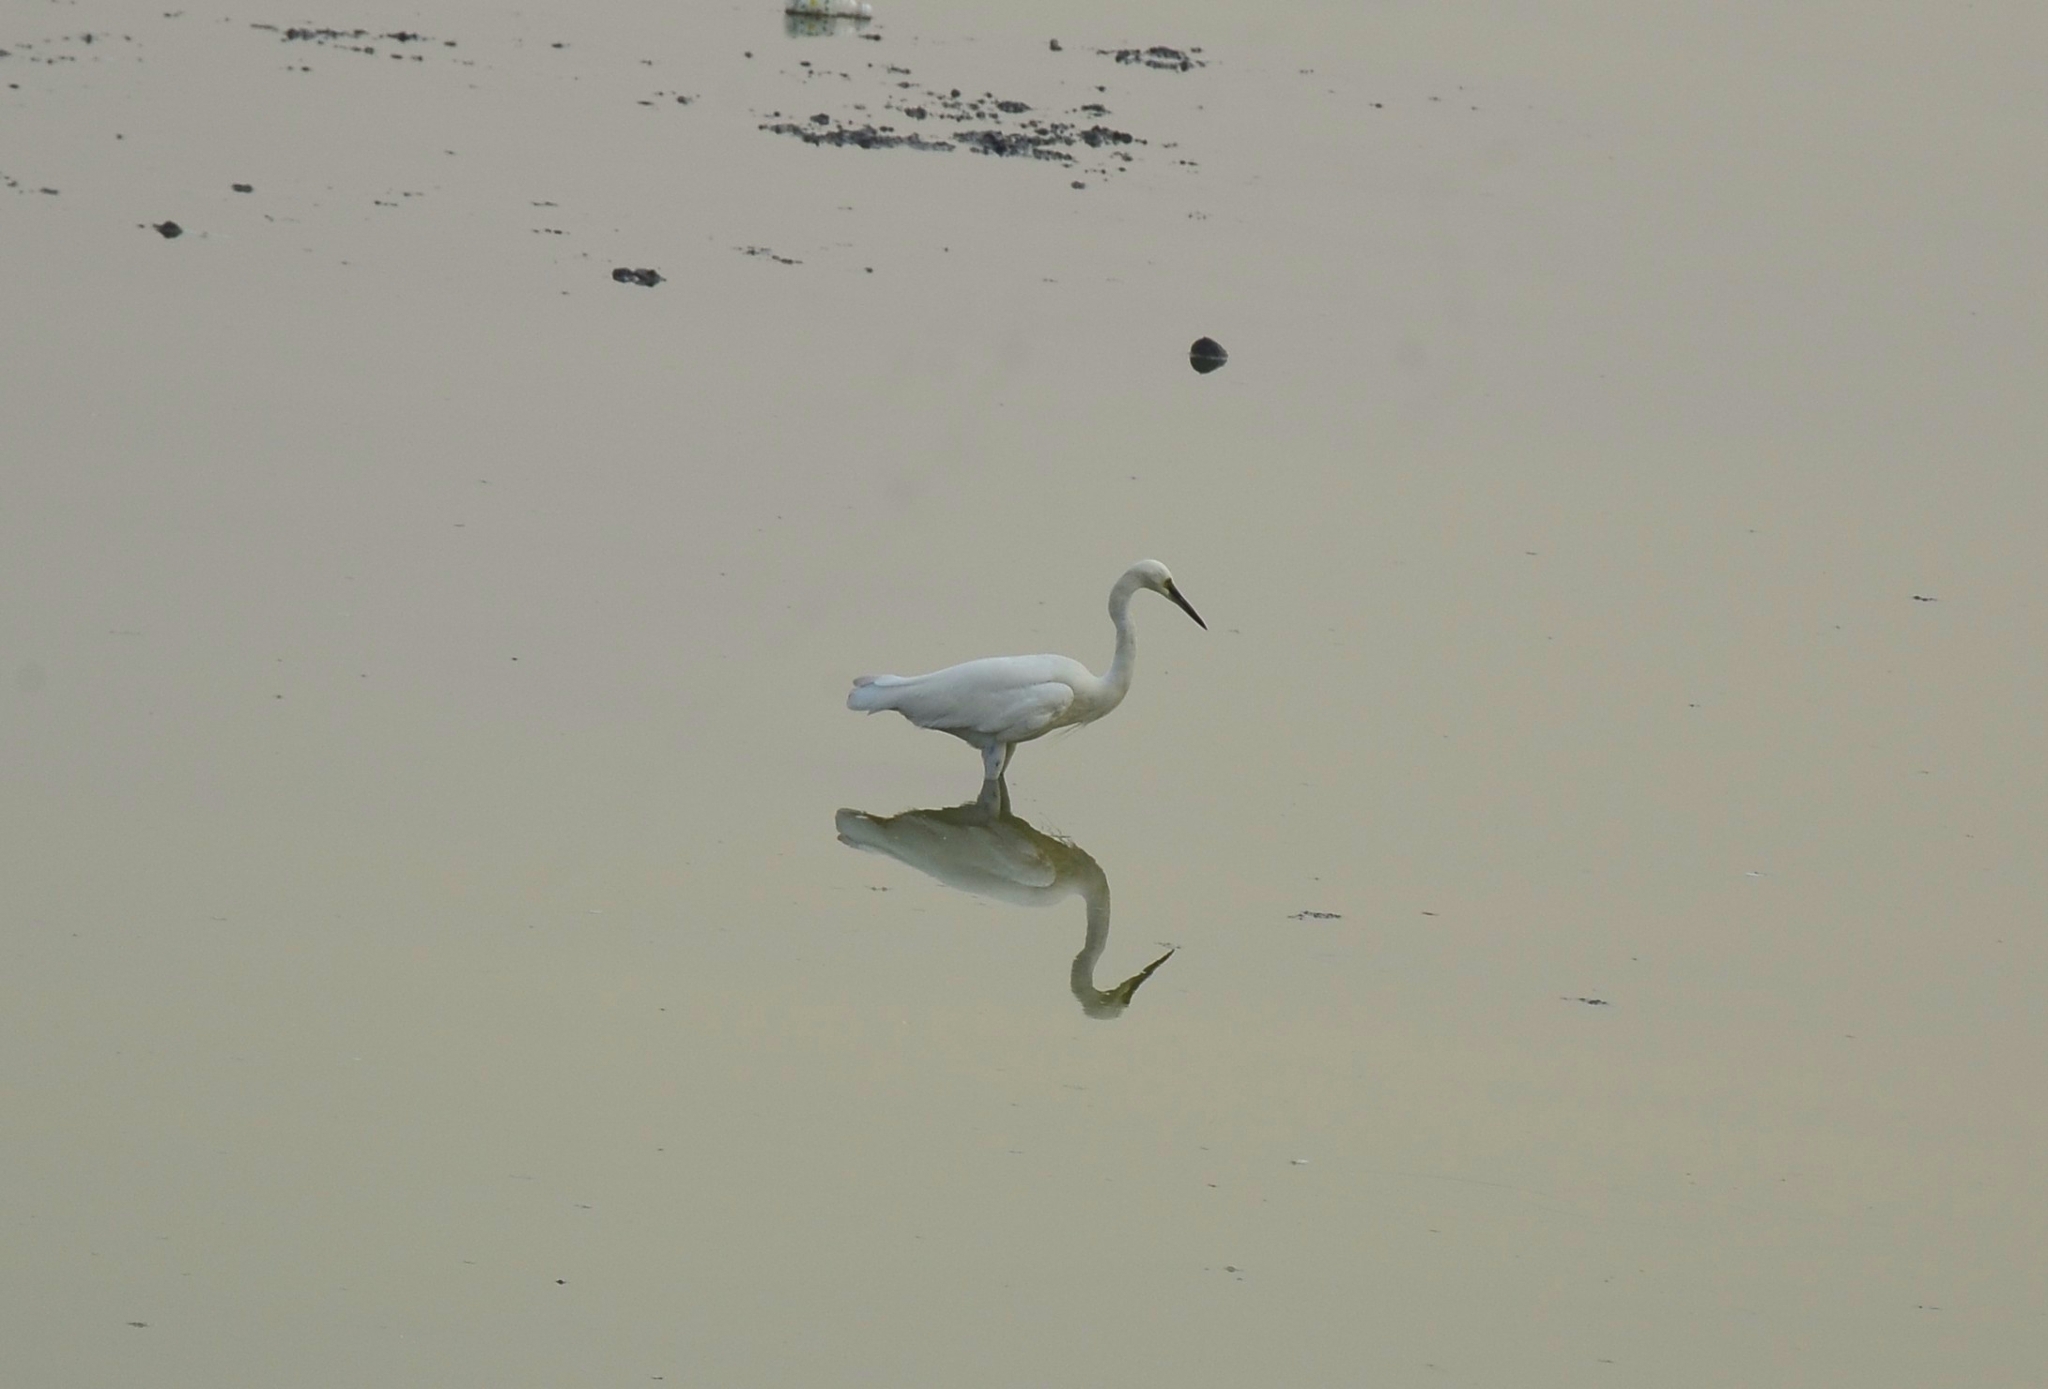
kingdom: Animalia
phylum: Chordata
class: Aves
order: Pelecaniformes
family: Ardeidae
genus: Egretta
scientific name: Egretta garzetta
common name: Little egret
